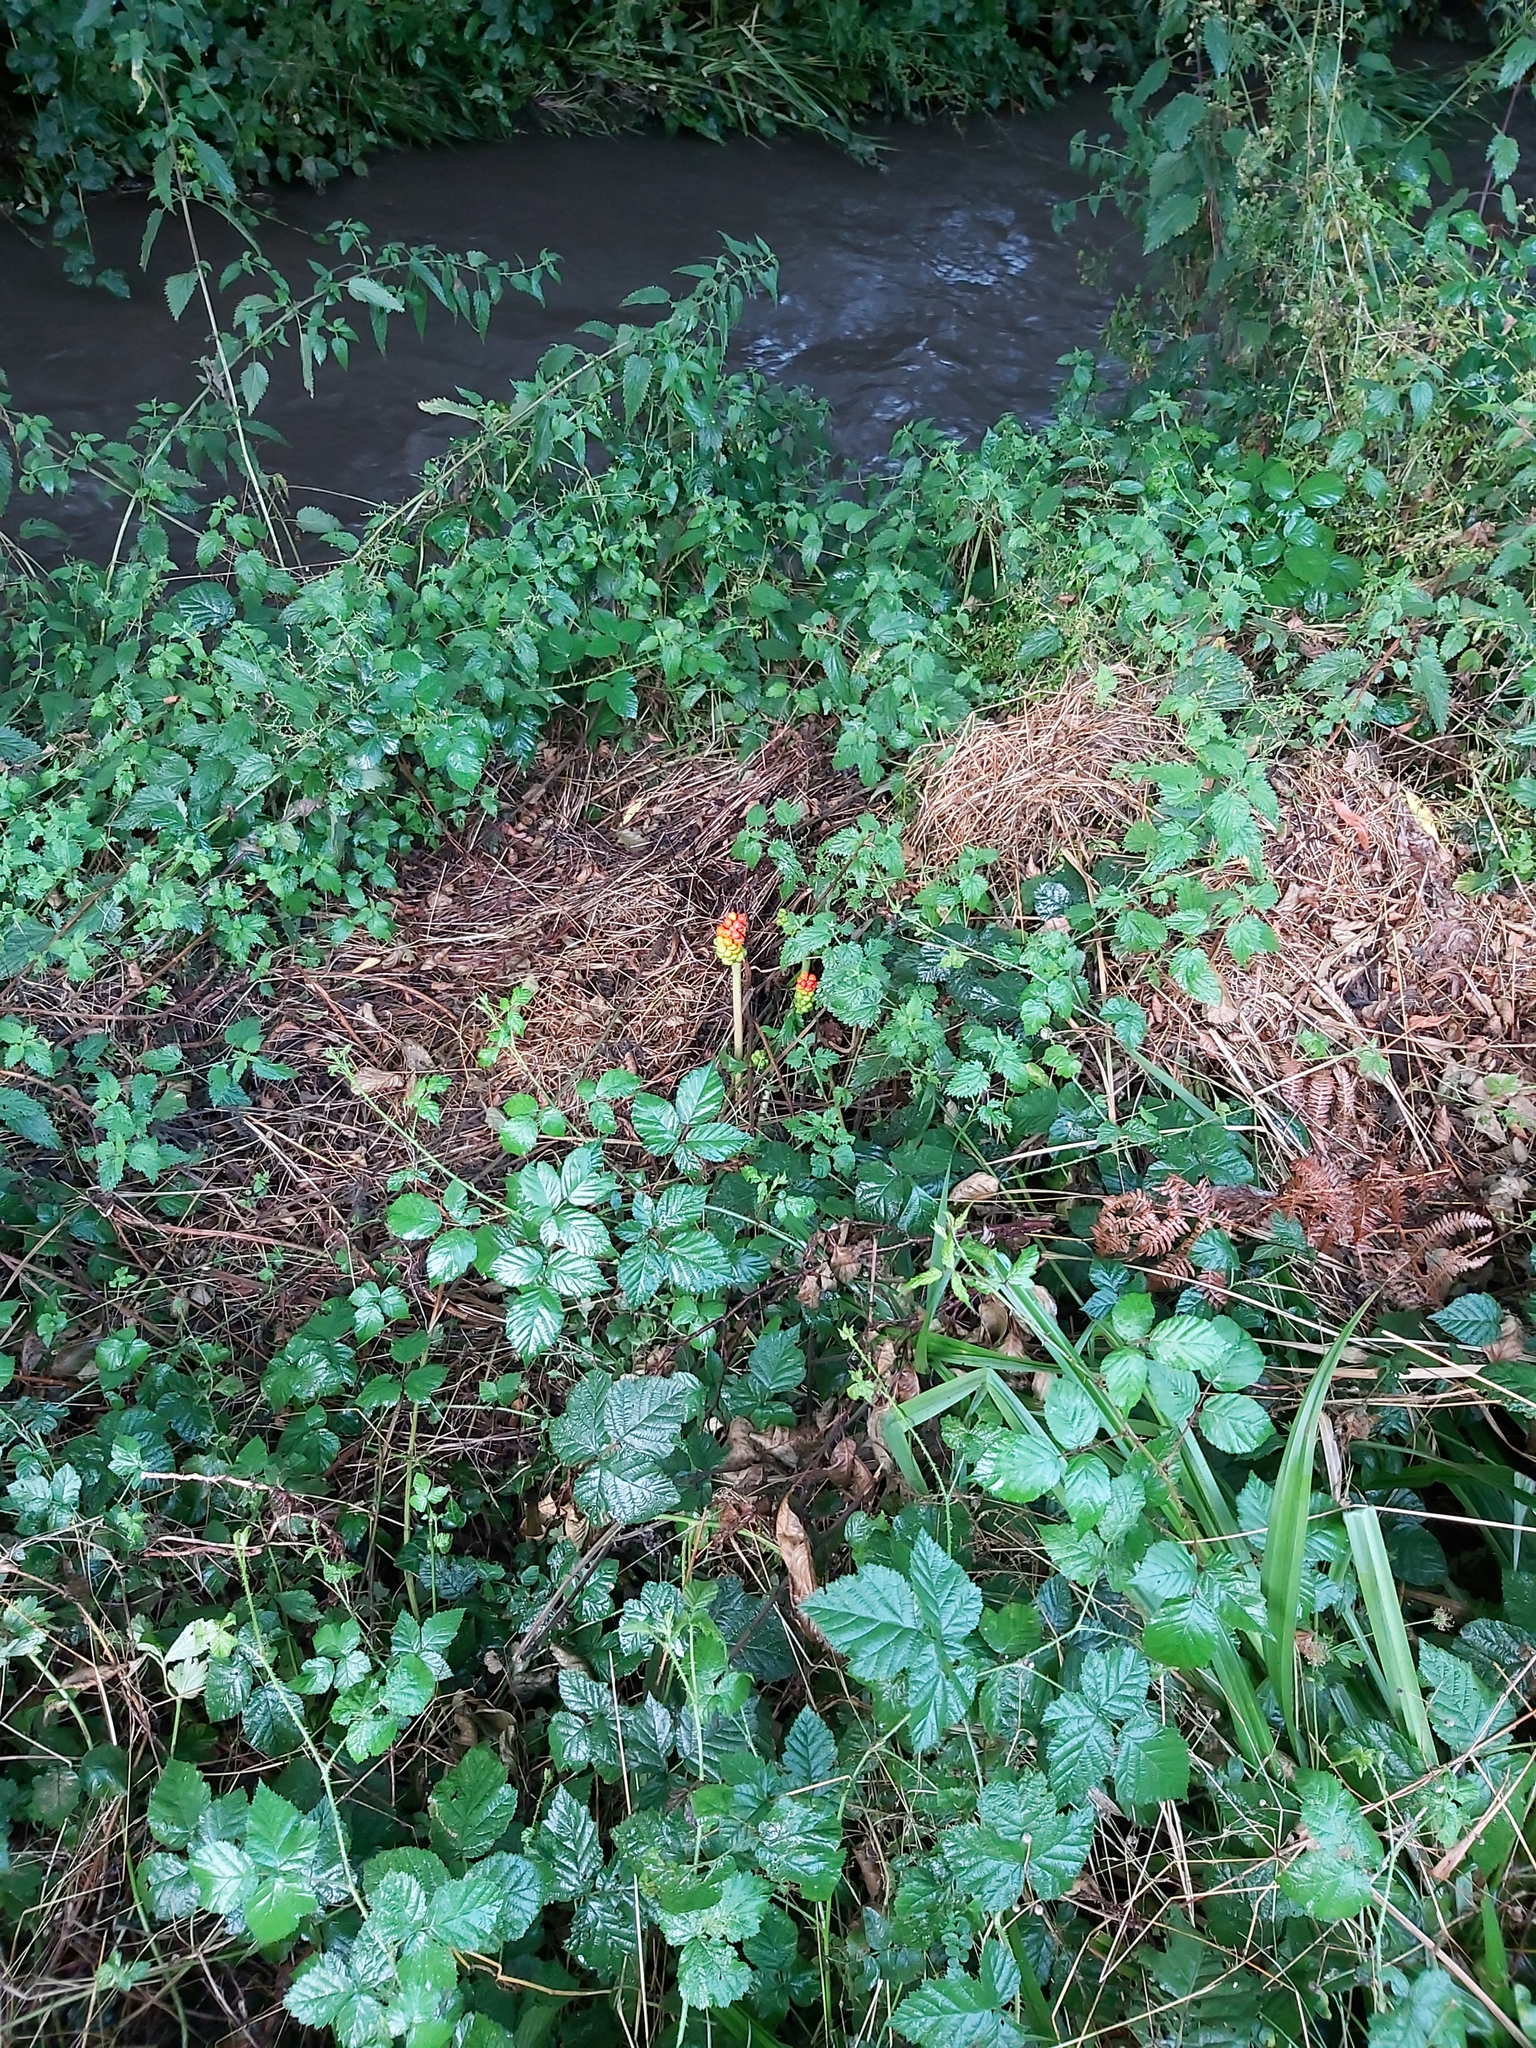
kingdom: Plantae
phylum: Tracheophyta
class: Liliopsida
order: Alismatales
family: Araceae
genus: Arum
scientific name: Arum maculatum
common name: Lords-and-ladies
